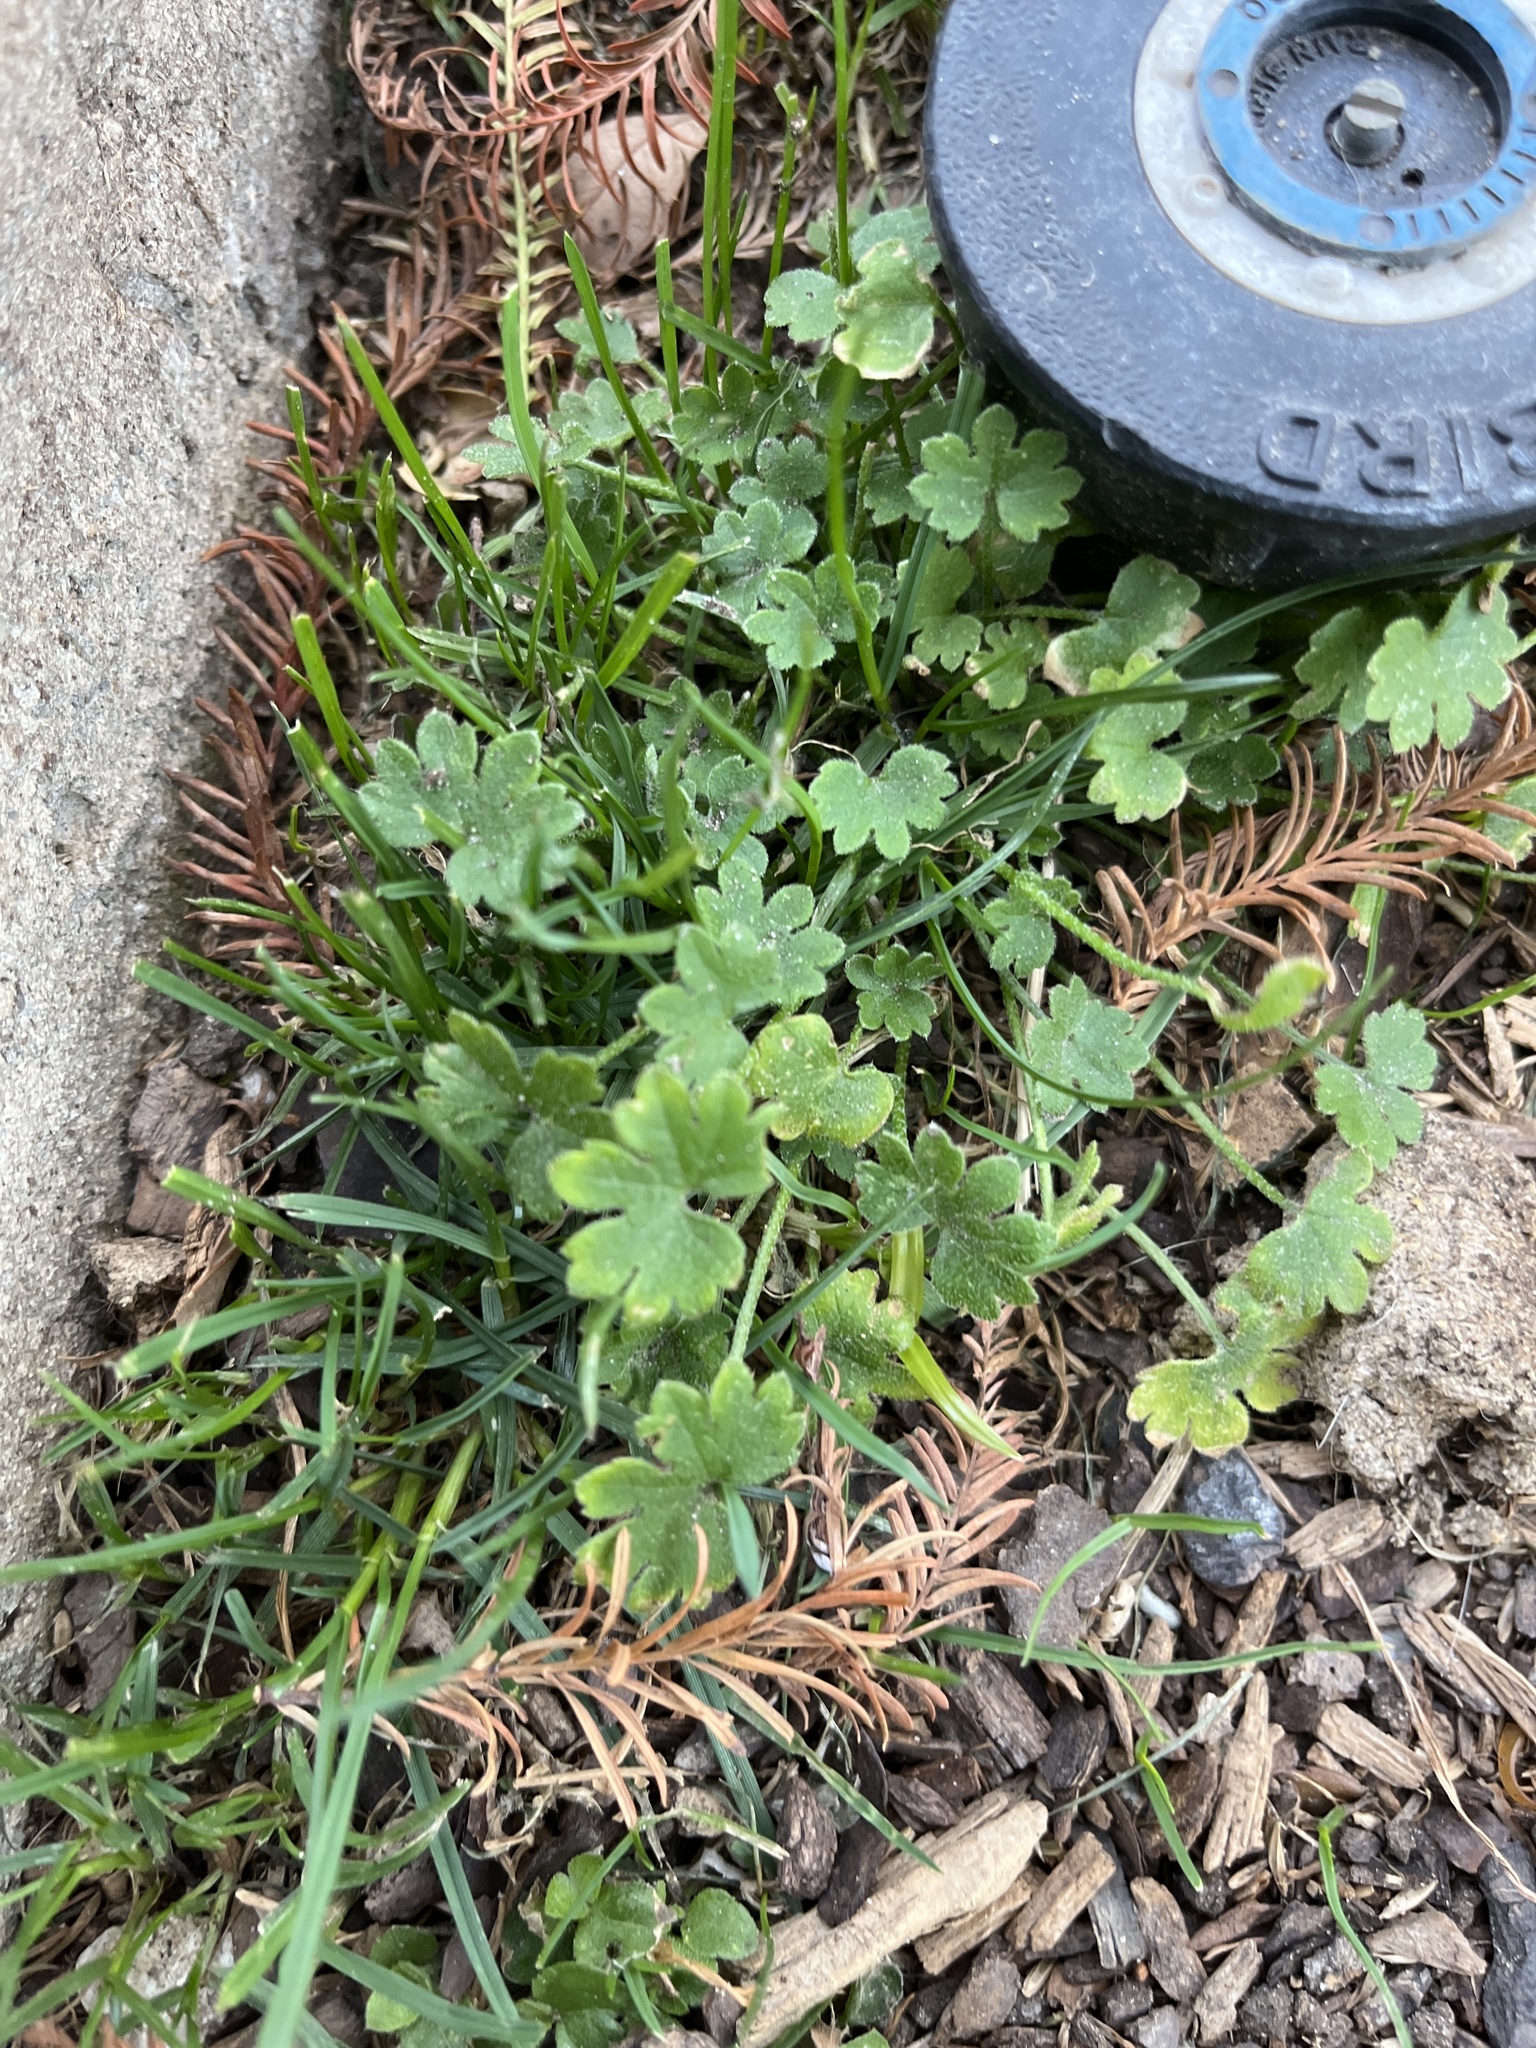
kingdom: Plantae
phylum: Tracheophyta
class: Magnoliopsida
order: Apiales
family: Apiaceae
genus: Bowlesia
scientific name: Bowlesia incana
